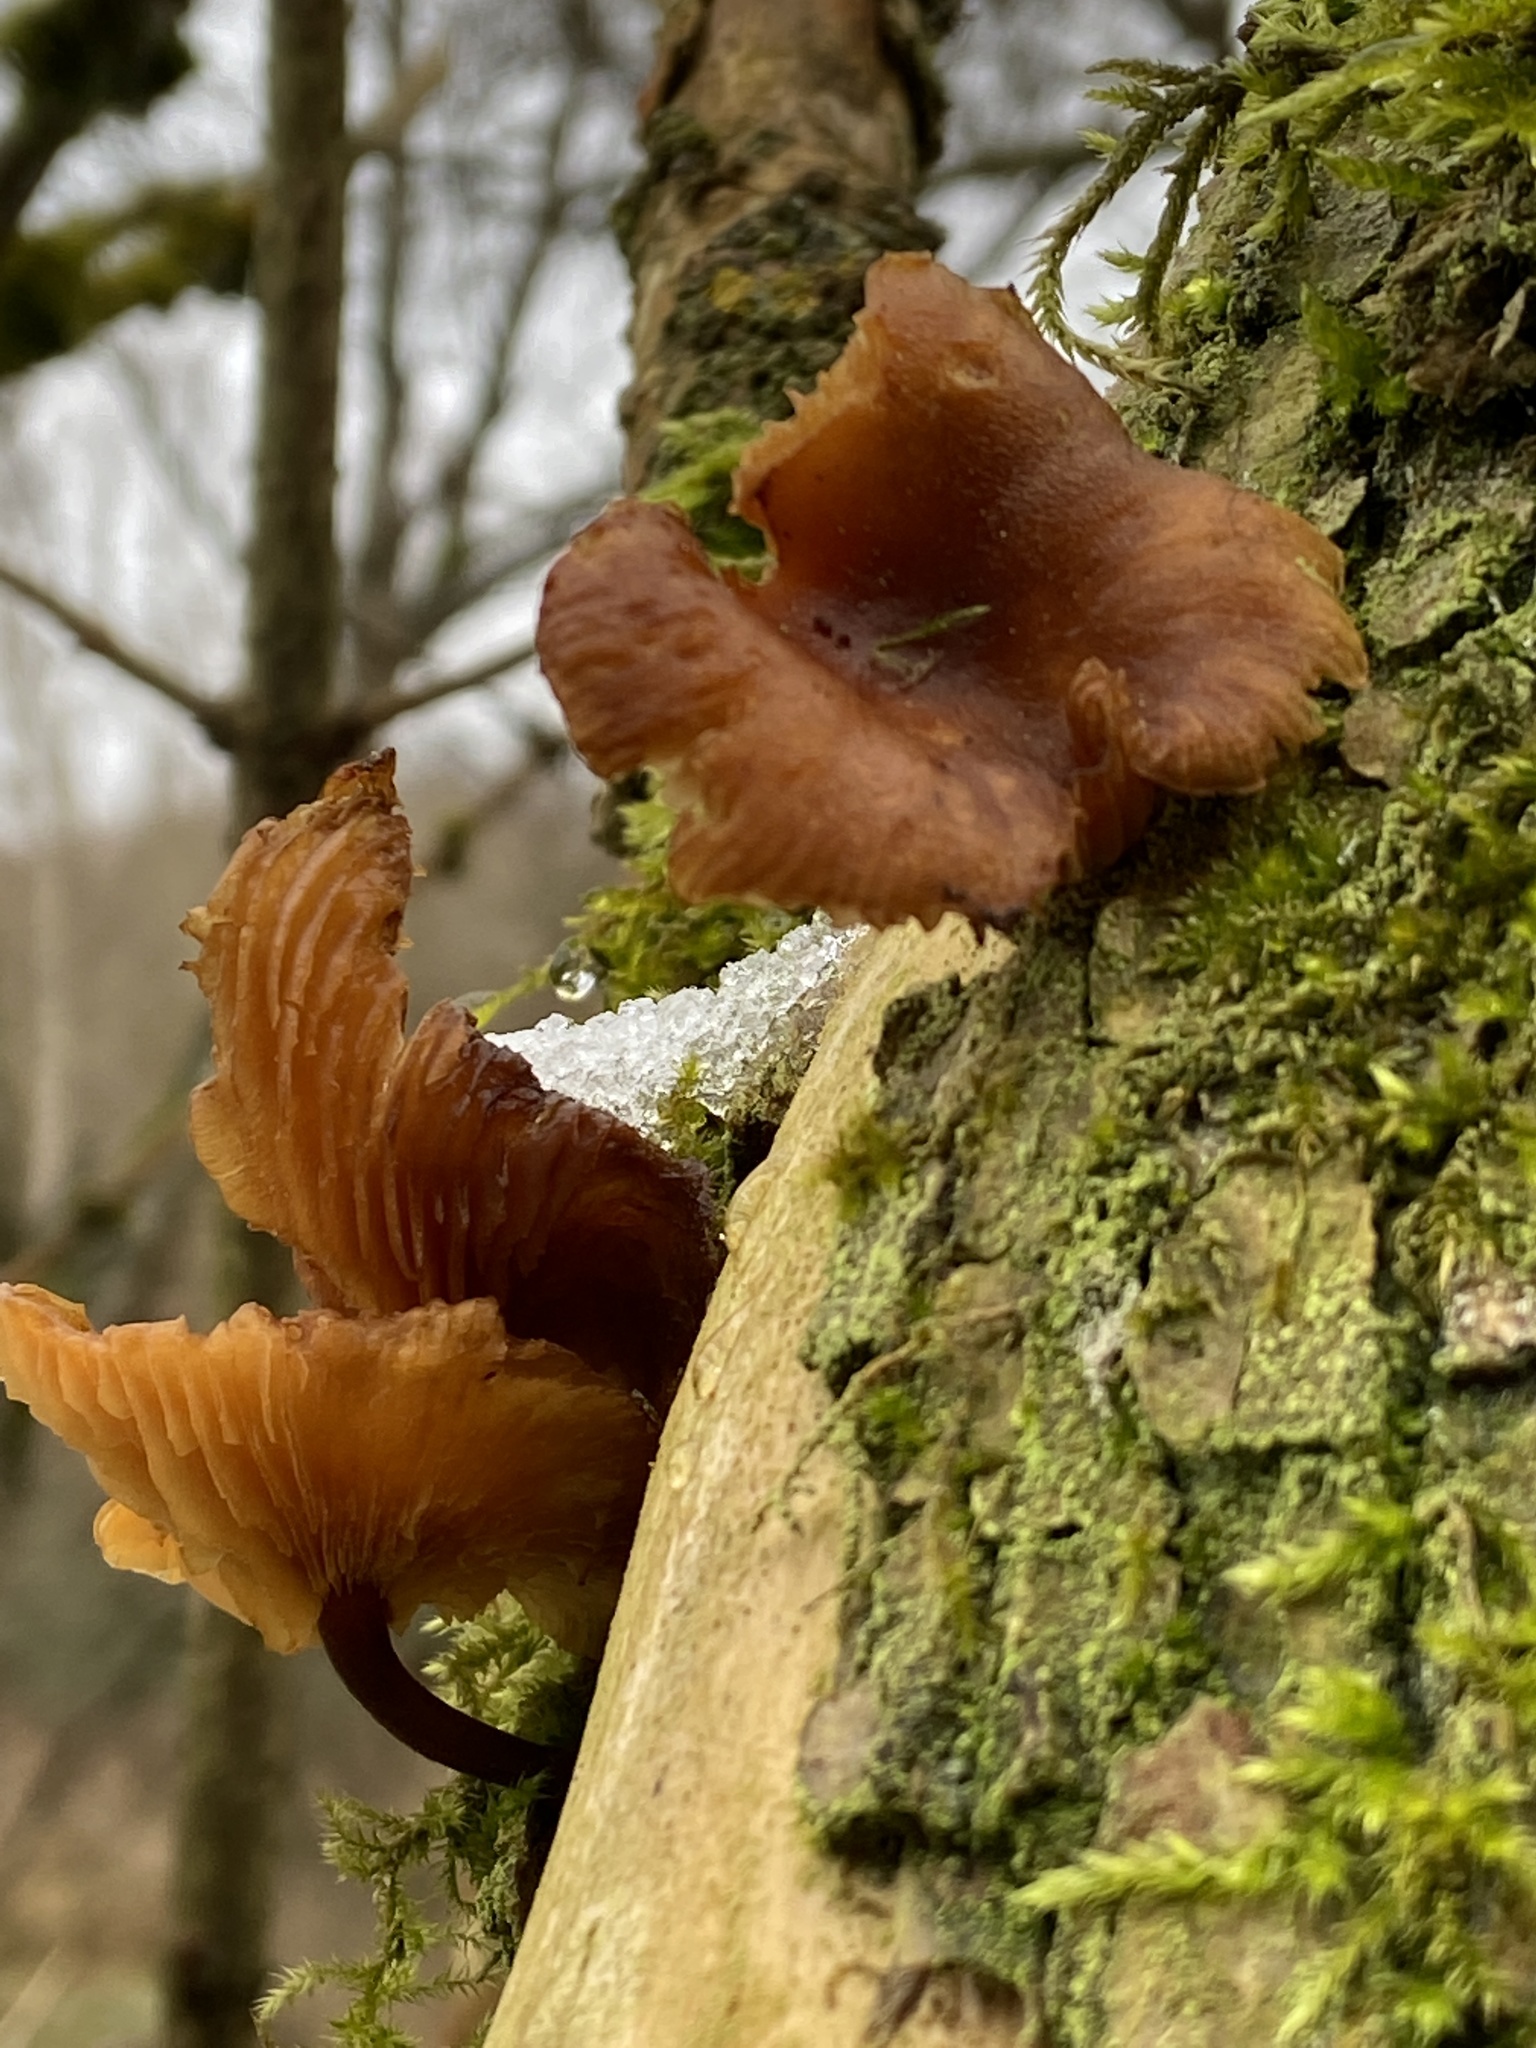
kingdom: Fungi
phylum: Basidiomycota
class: Agaricomycetes
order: Agaricales
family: Physalacriaceae
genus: Flammulina
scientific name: Flammulina
